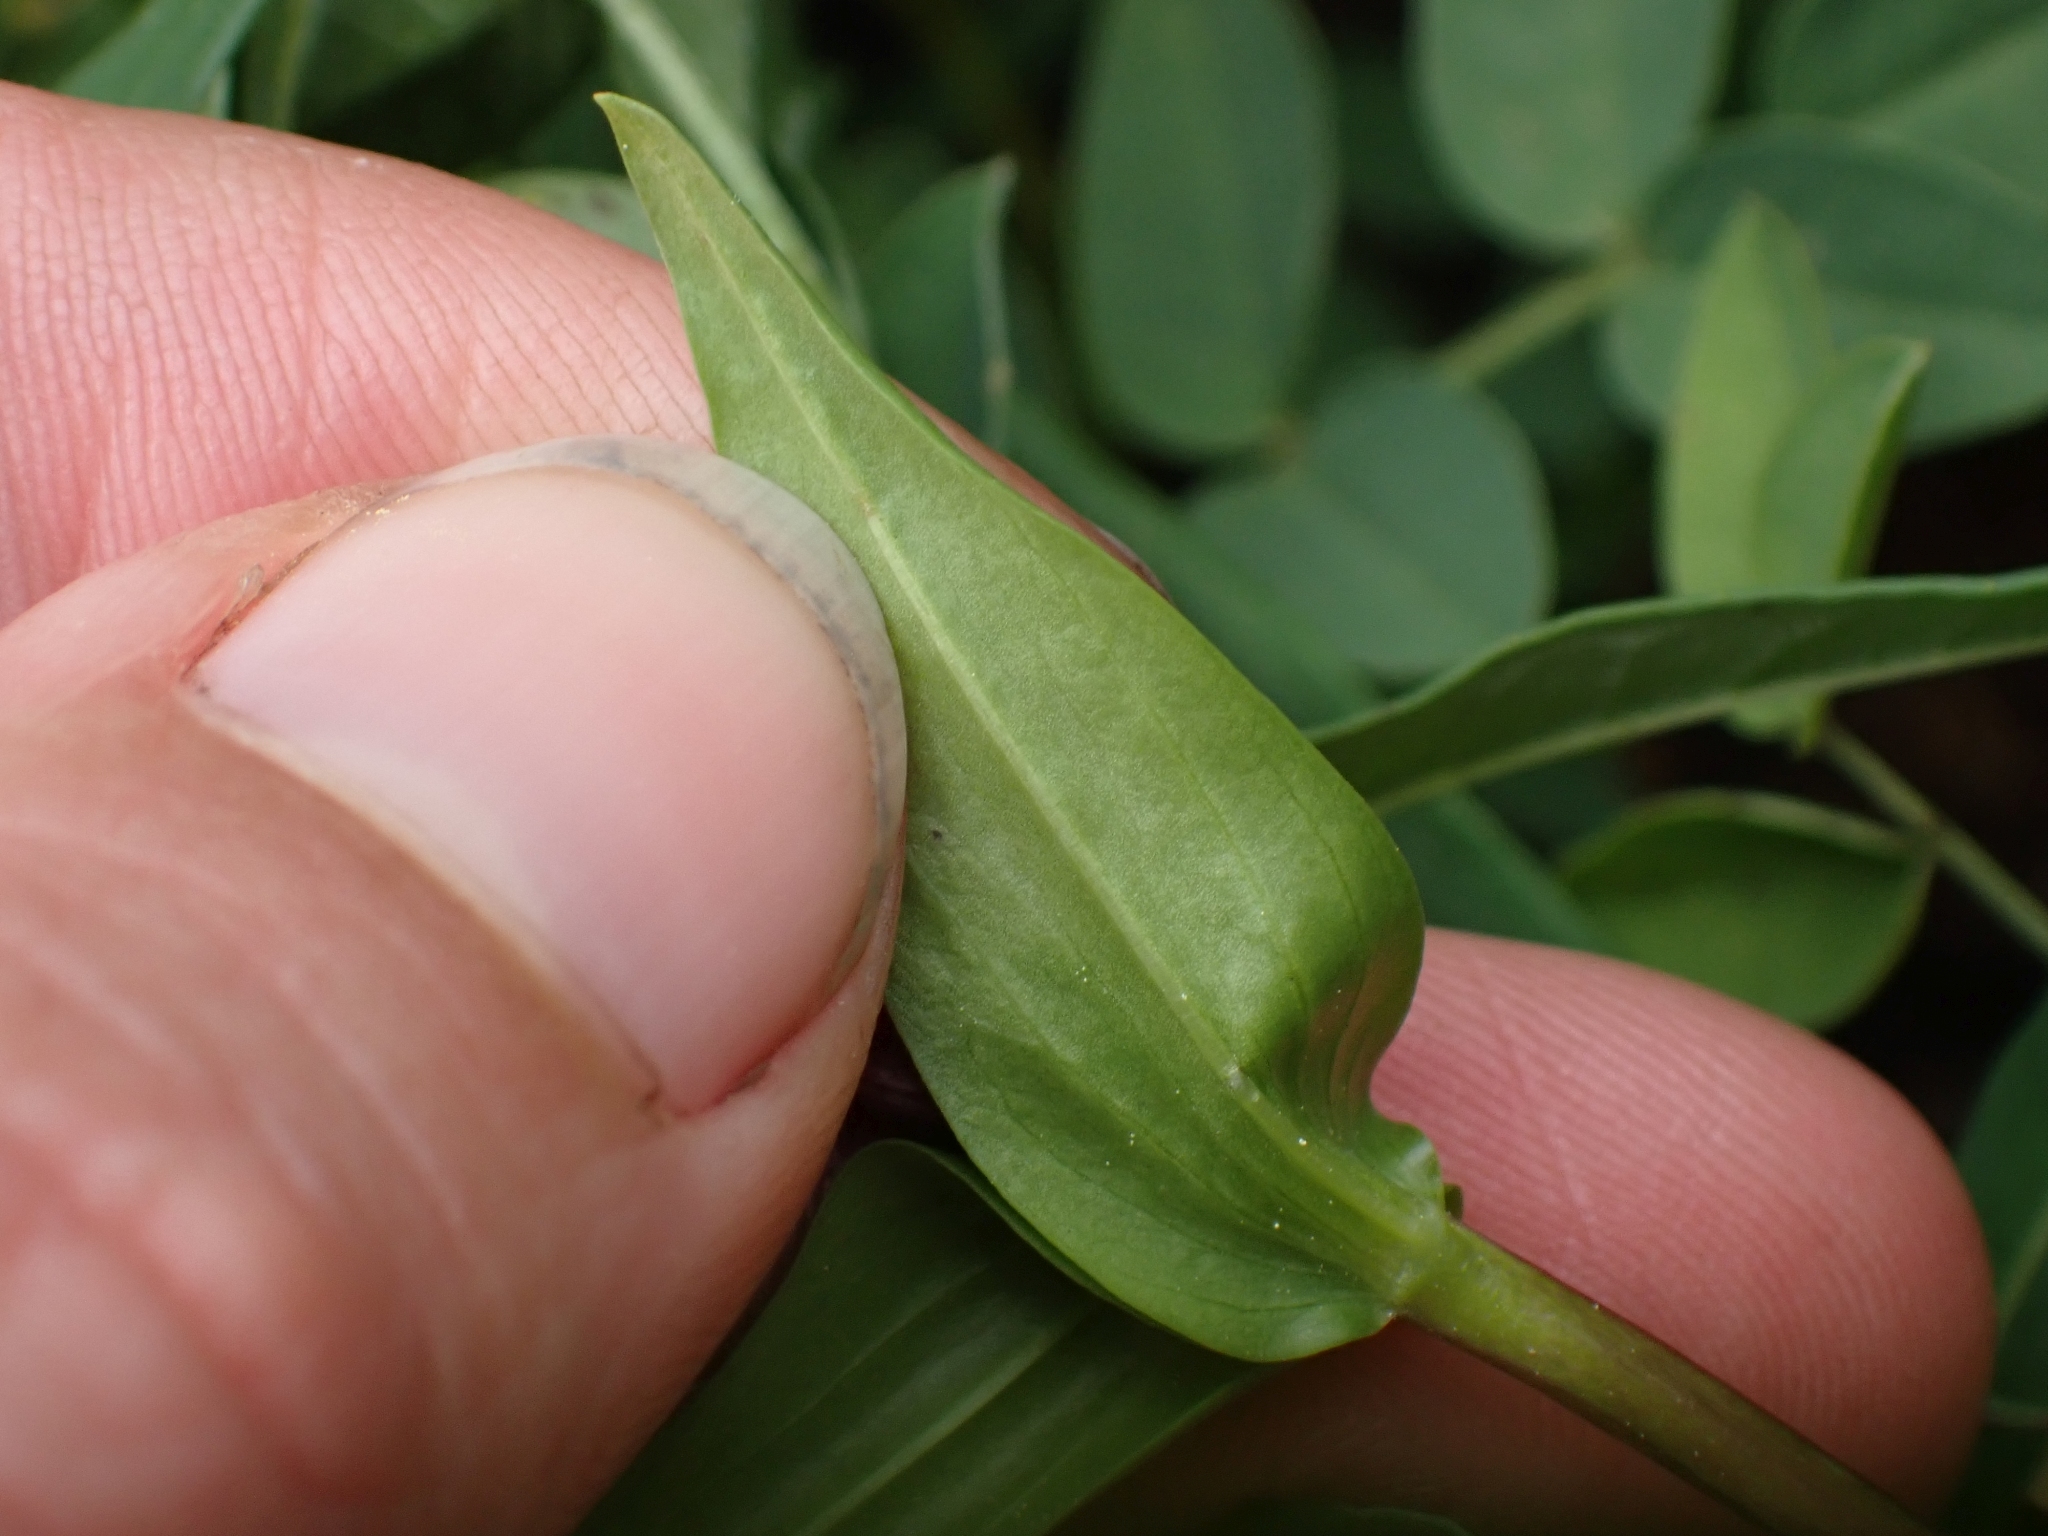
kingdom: Plantae
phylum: Tracheophyta
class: Magnoliopsida
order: Gentianales
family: Gentianaceae
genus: Gentianella
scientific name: Gentianella amarella
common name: Autumn gentian
